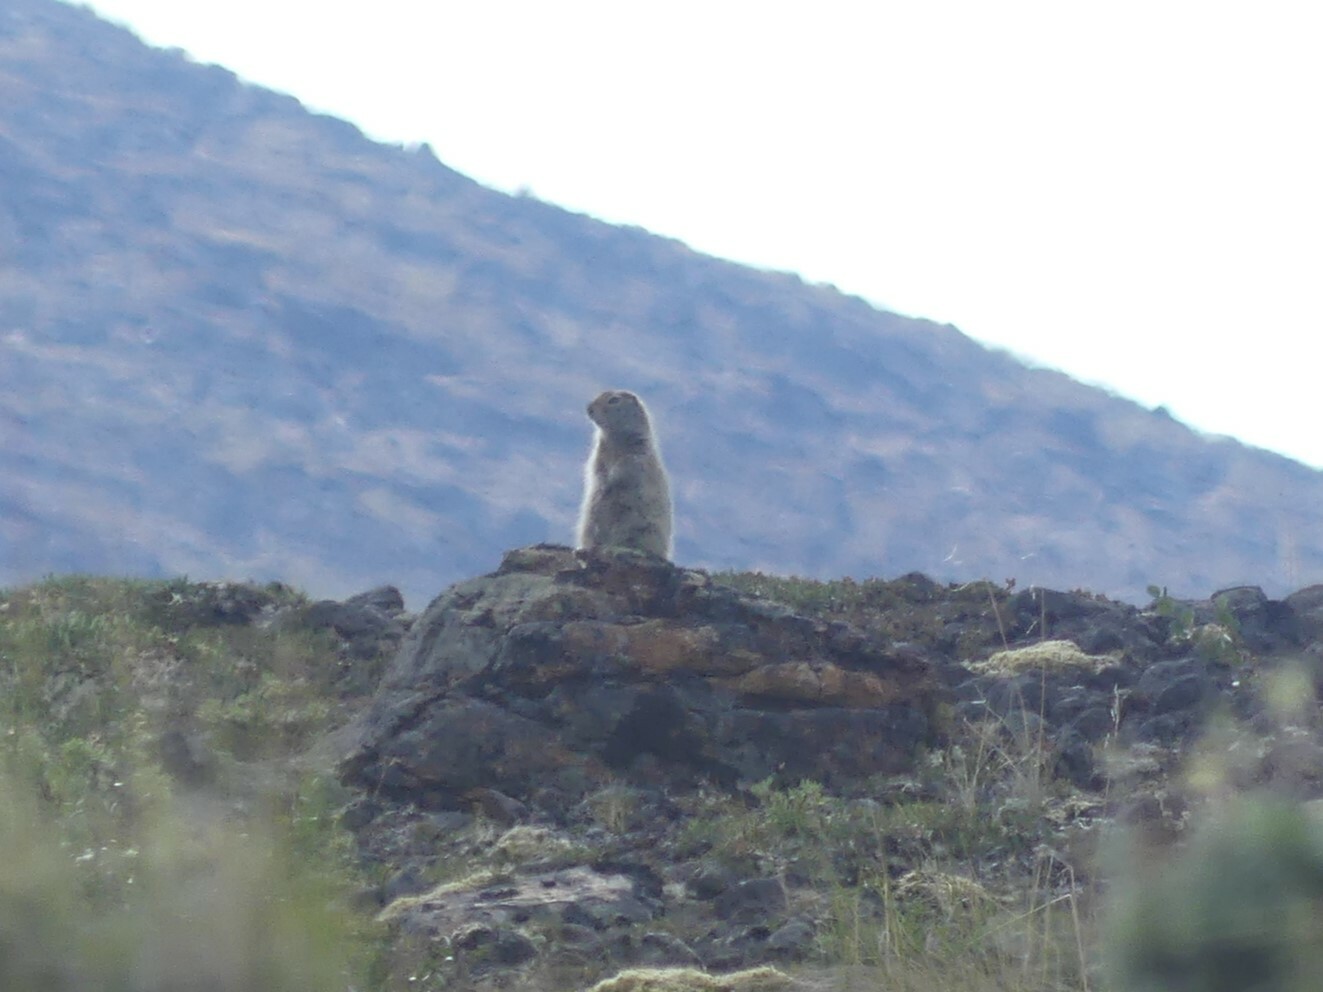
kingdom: Animalia
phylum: Chordata
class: Mammalia
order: Rodentia
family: Sciuridae
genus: Urocitellus
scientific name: Urocitellus parryii
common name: Arctic ground squirrel
